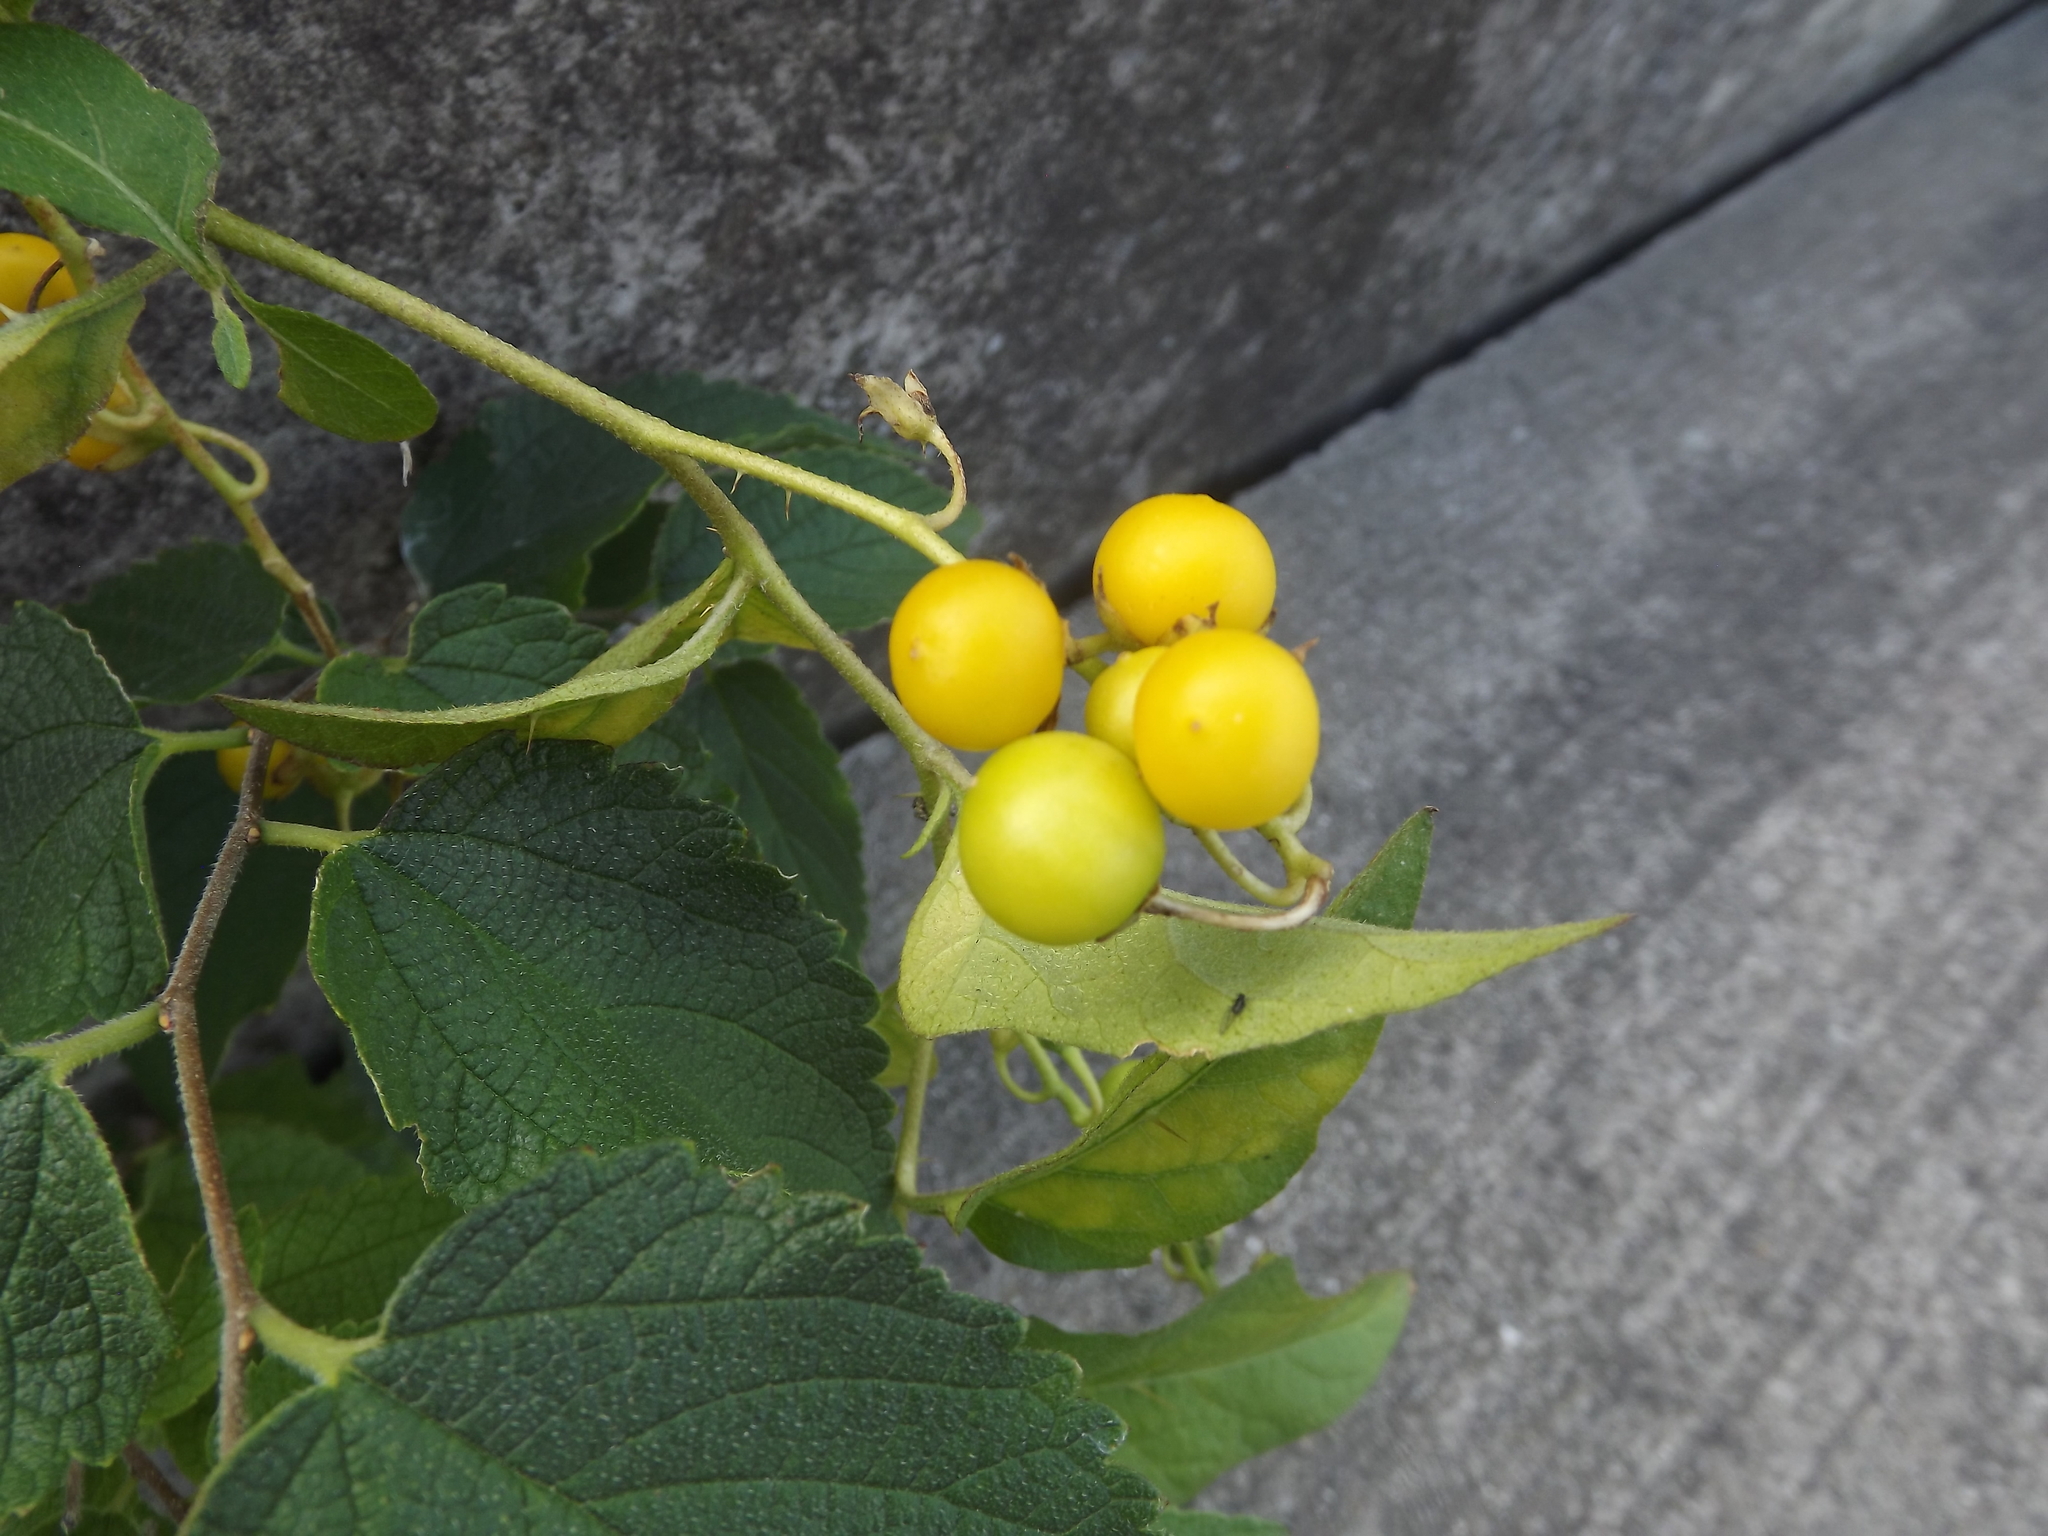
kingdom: Plantae
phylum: Tracheophyta
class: Magnoliopsida
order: Solanales
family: Solanaceae
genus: Solanum
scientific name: Solanum carolinense
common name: Horse-nettle
